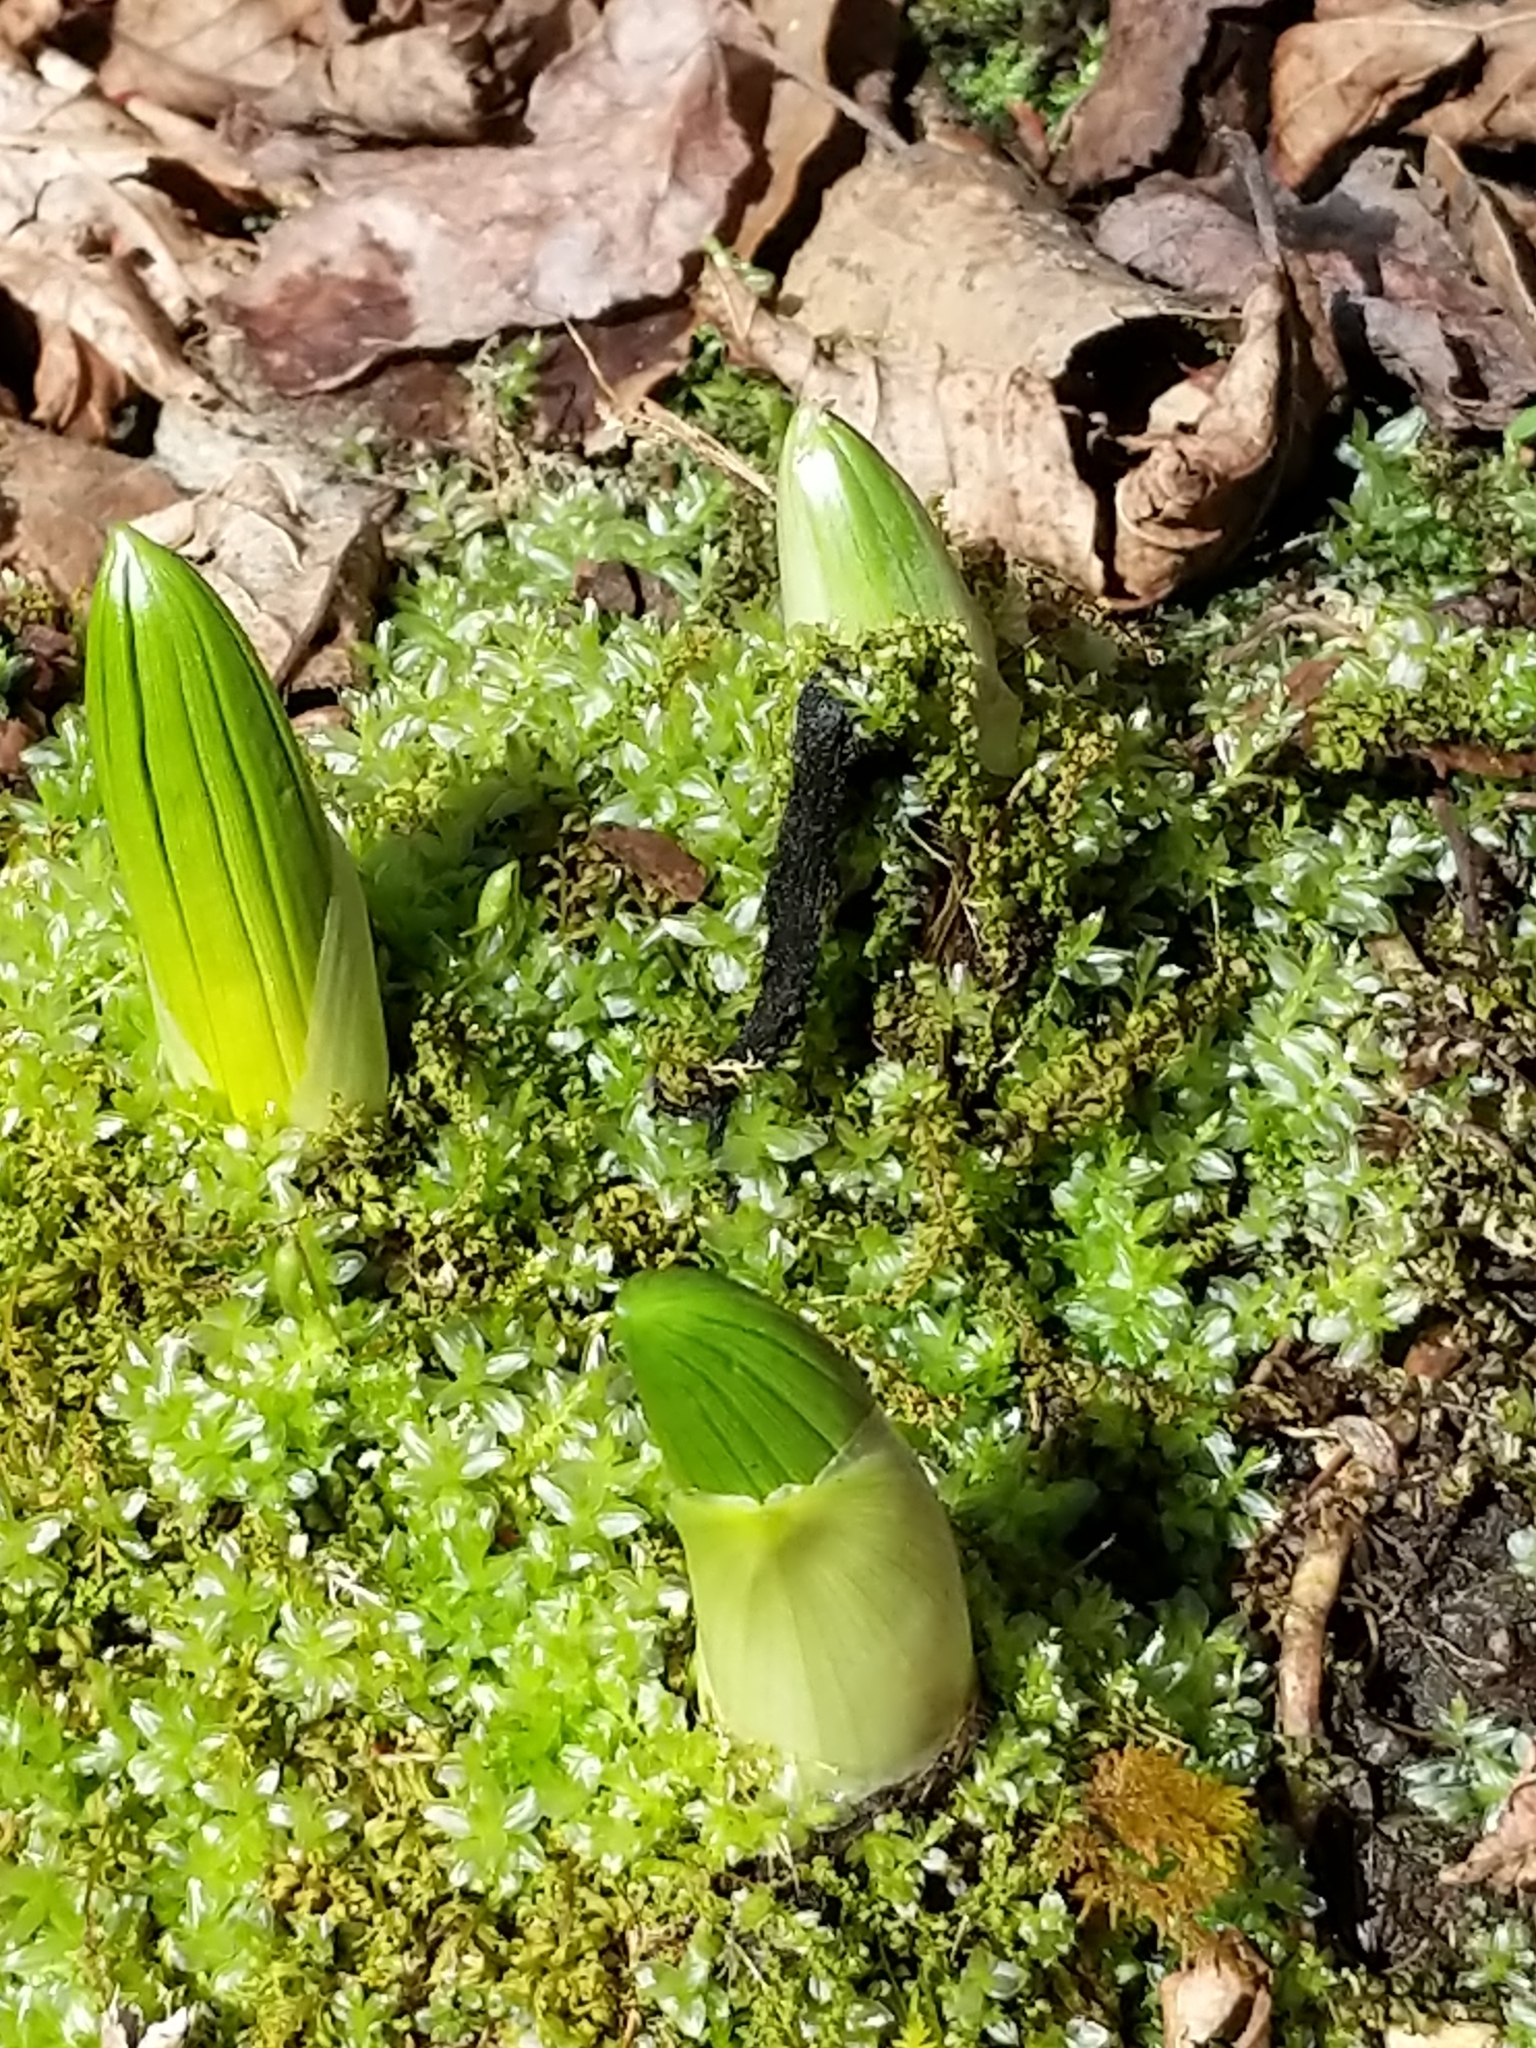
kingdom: Plantae
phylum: Tracheophyta
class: Liliopsida
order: Liliales
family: Melanthiaceae
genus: Veratrum
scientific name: Veratrum viride
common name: American false hellebore
